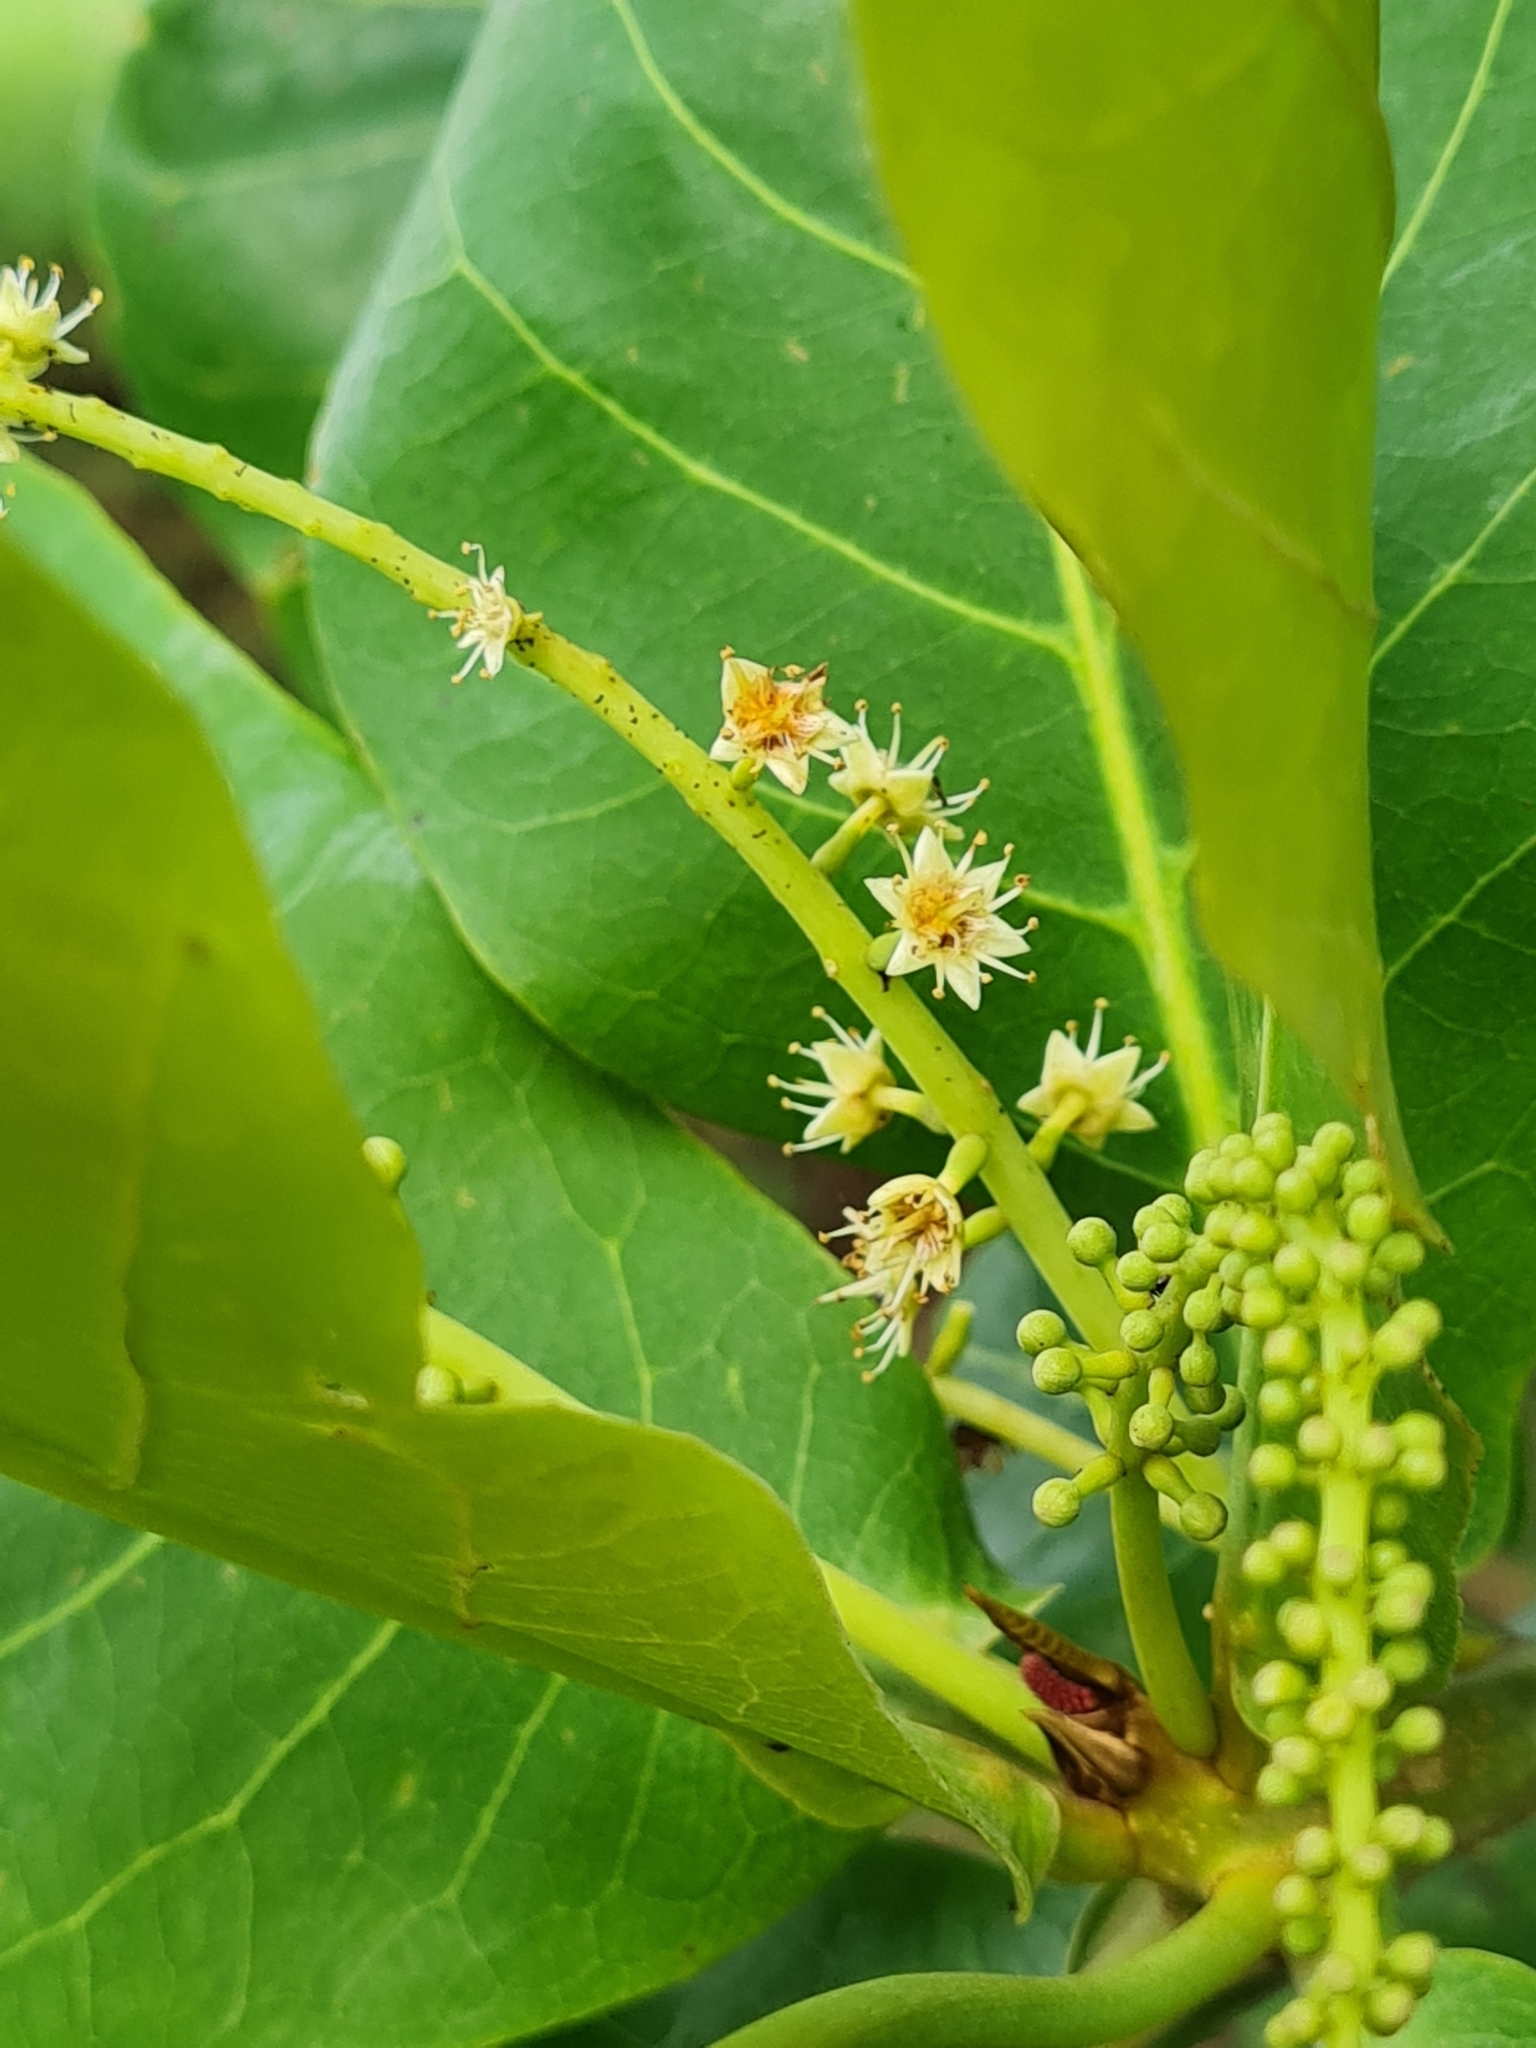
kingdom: Plantae
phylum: Tracheophyta
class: Magnoliopsida
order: Myrtales
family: Combretaceae
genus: Terminalia
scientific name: Terminalia catappa
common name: Tropical almond
